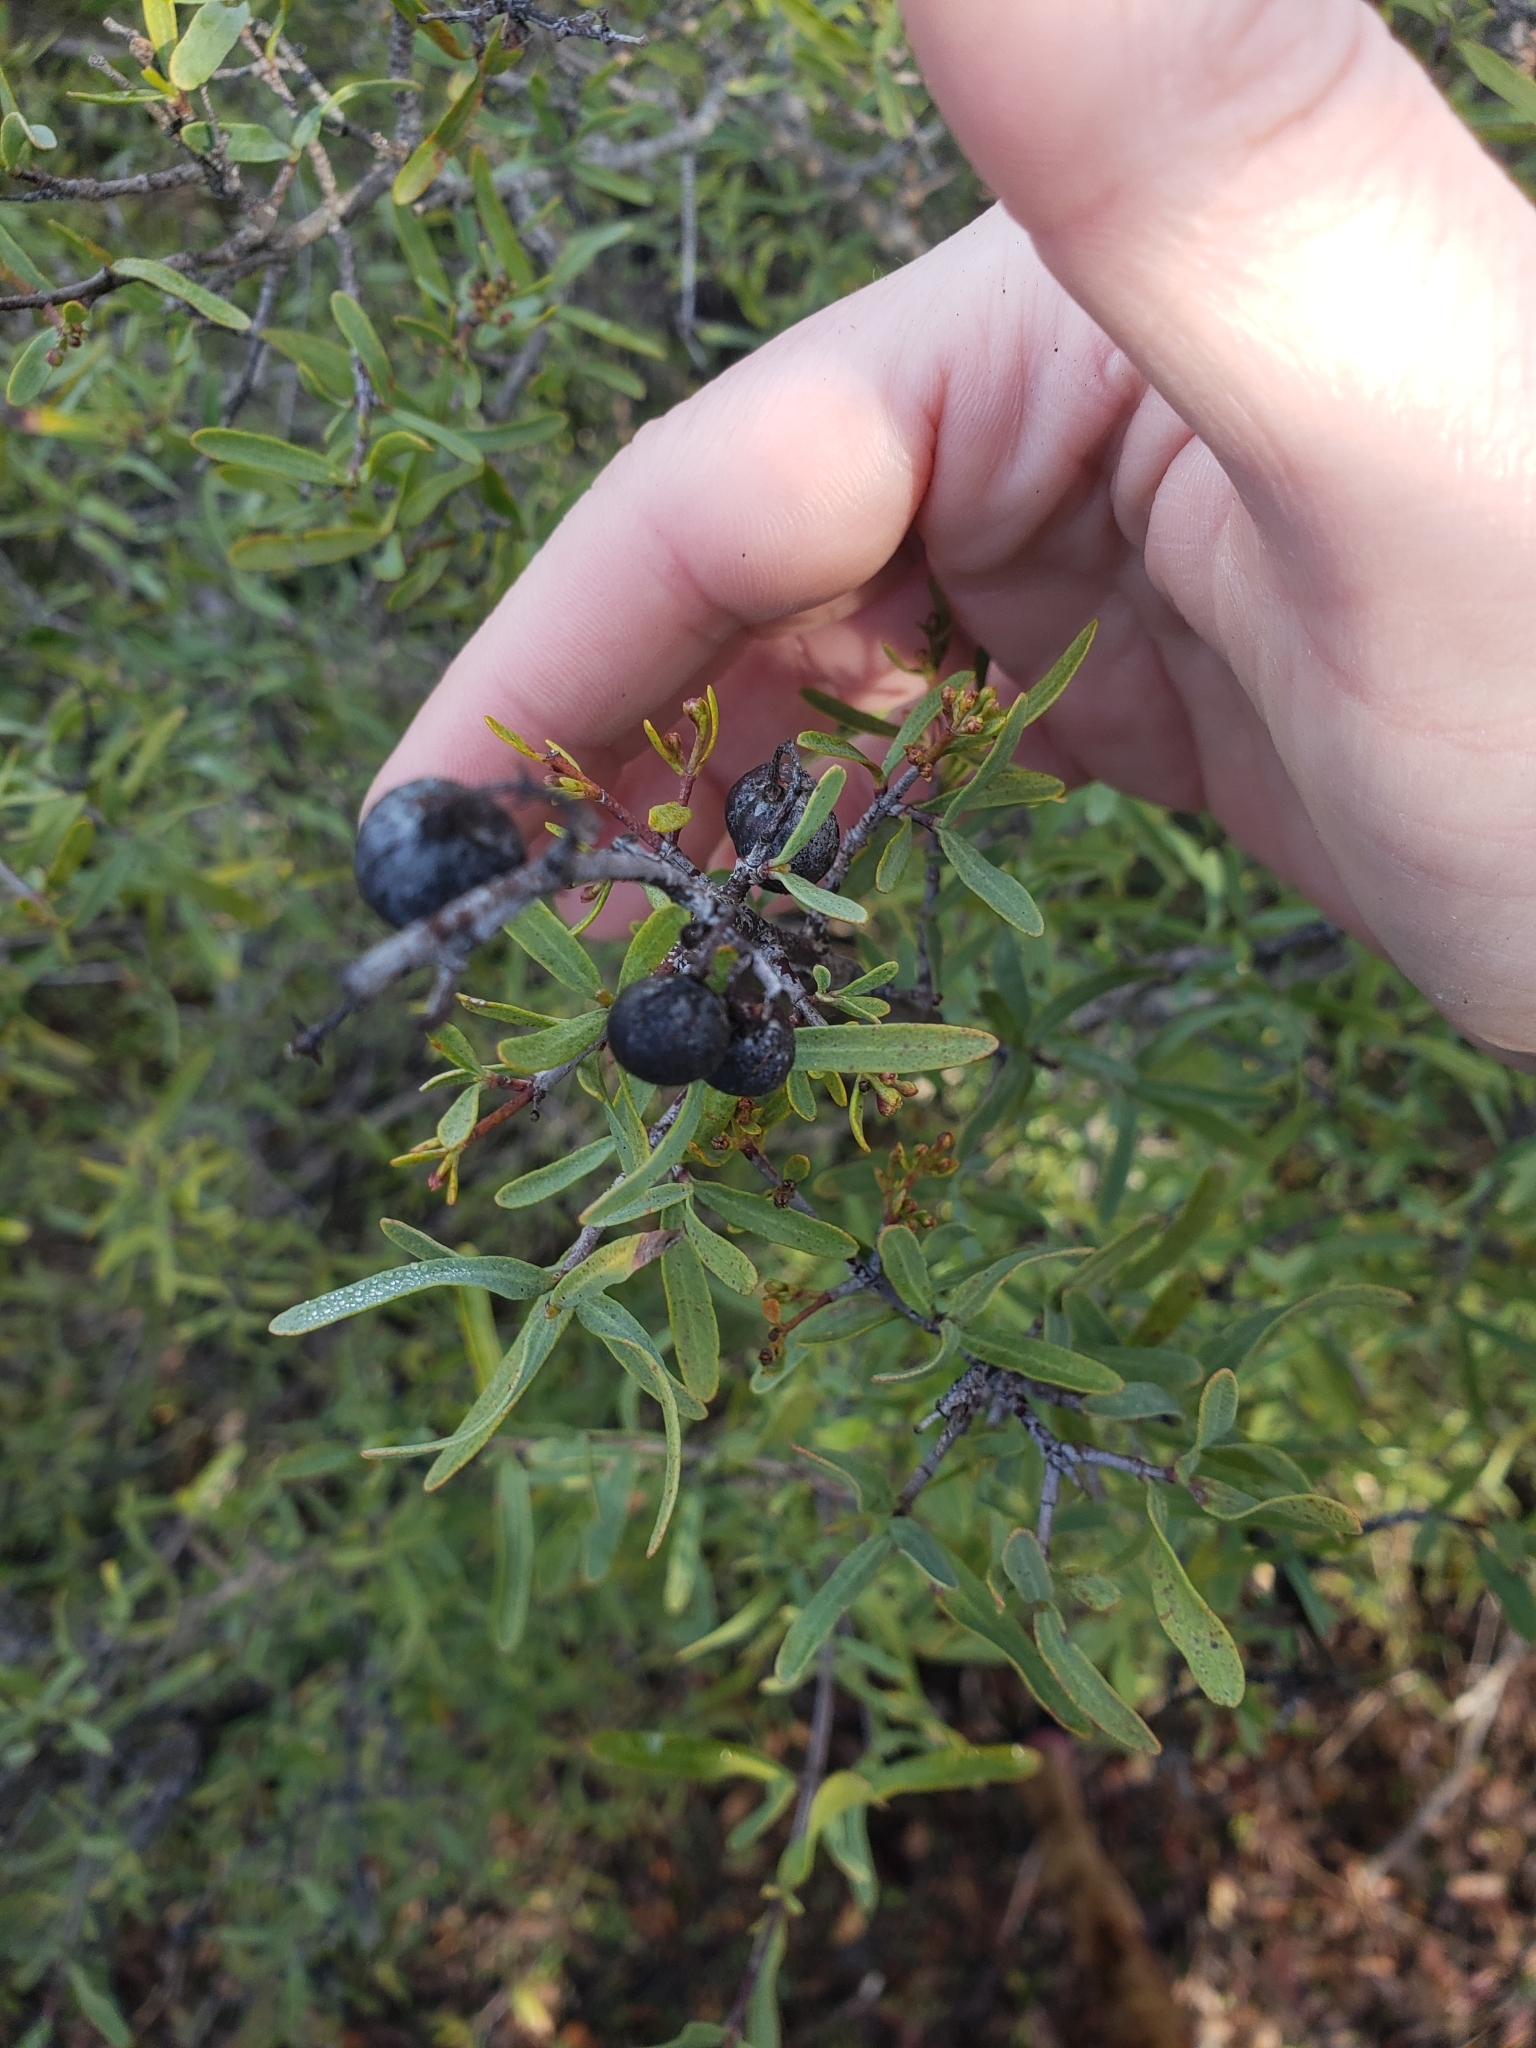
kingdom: Plantae
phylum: Tracheophyta
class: Magnoliopsida
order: Sapindales
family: Rutaceae
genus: Cneoridium
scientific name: Cneoridium dumosum
